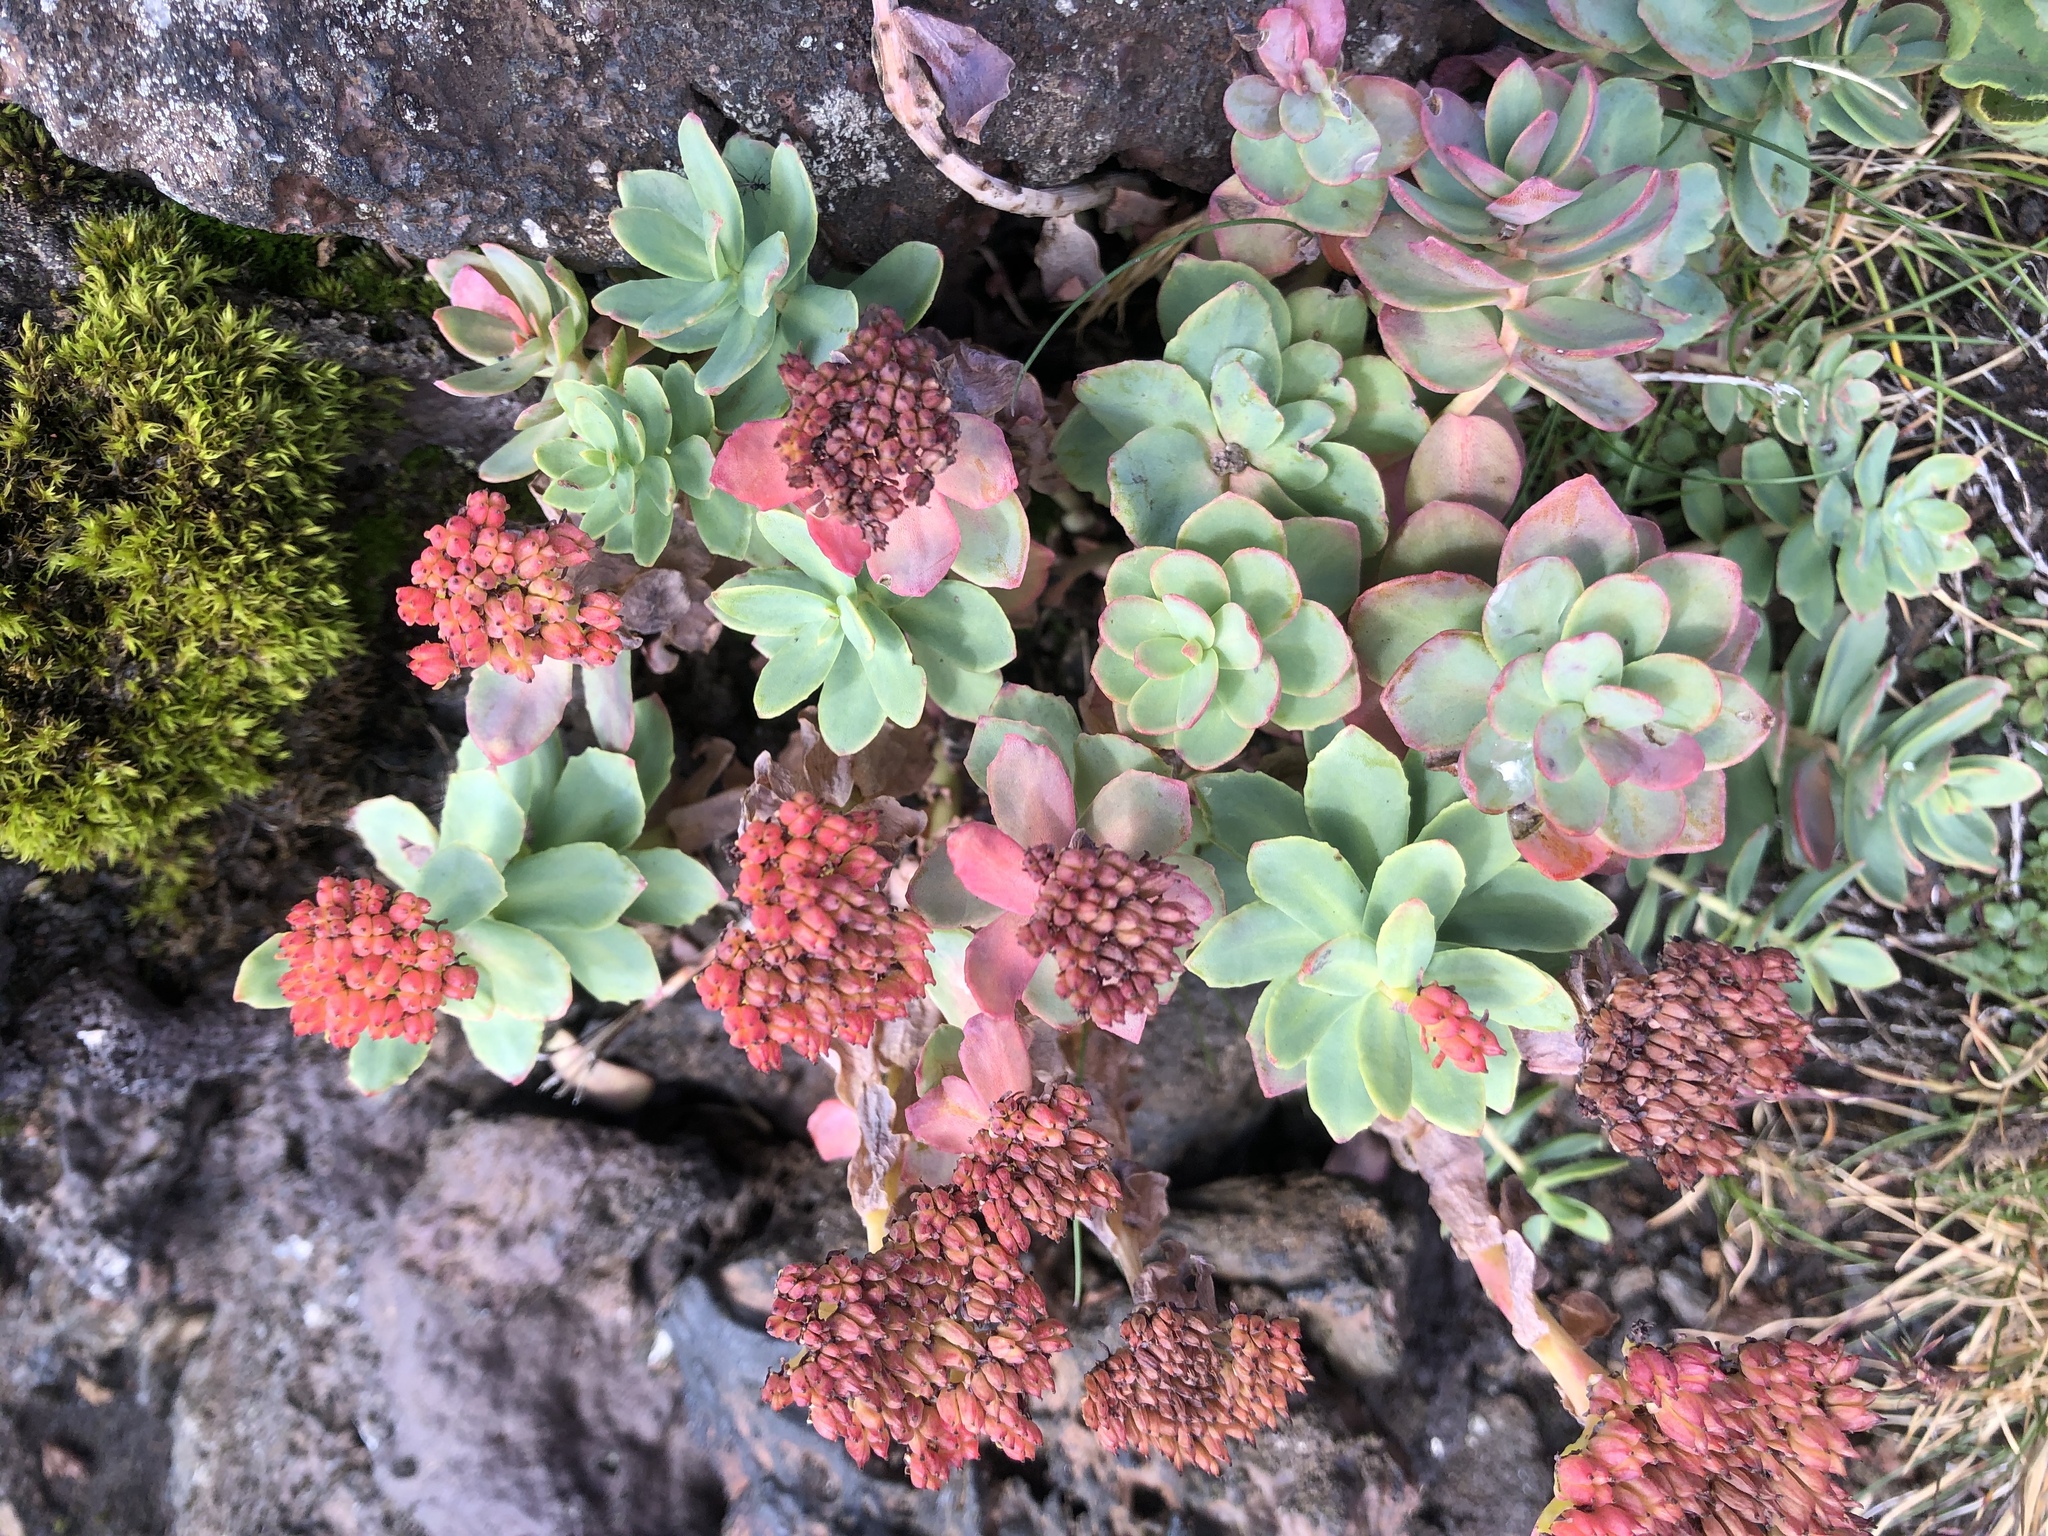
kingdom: Plantae
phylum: Tracheophyta
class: Magnoliopsida
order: Saxifragales
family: Crassulaceae
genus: Rhodiola
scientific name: Rhodiola rosea
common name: Roseroot
